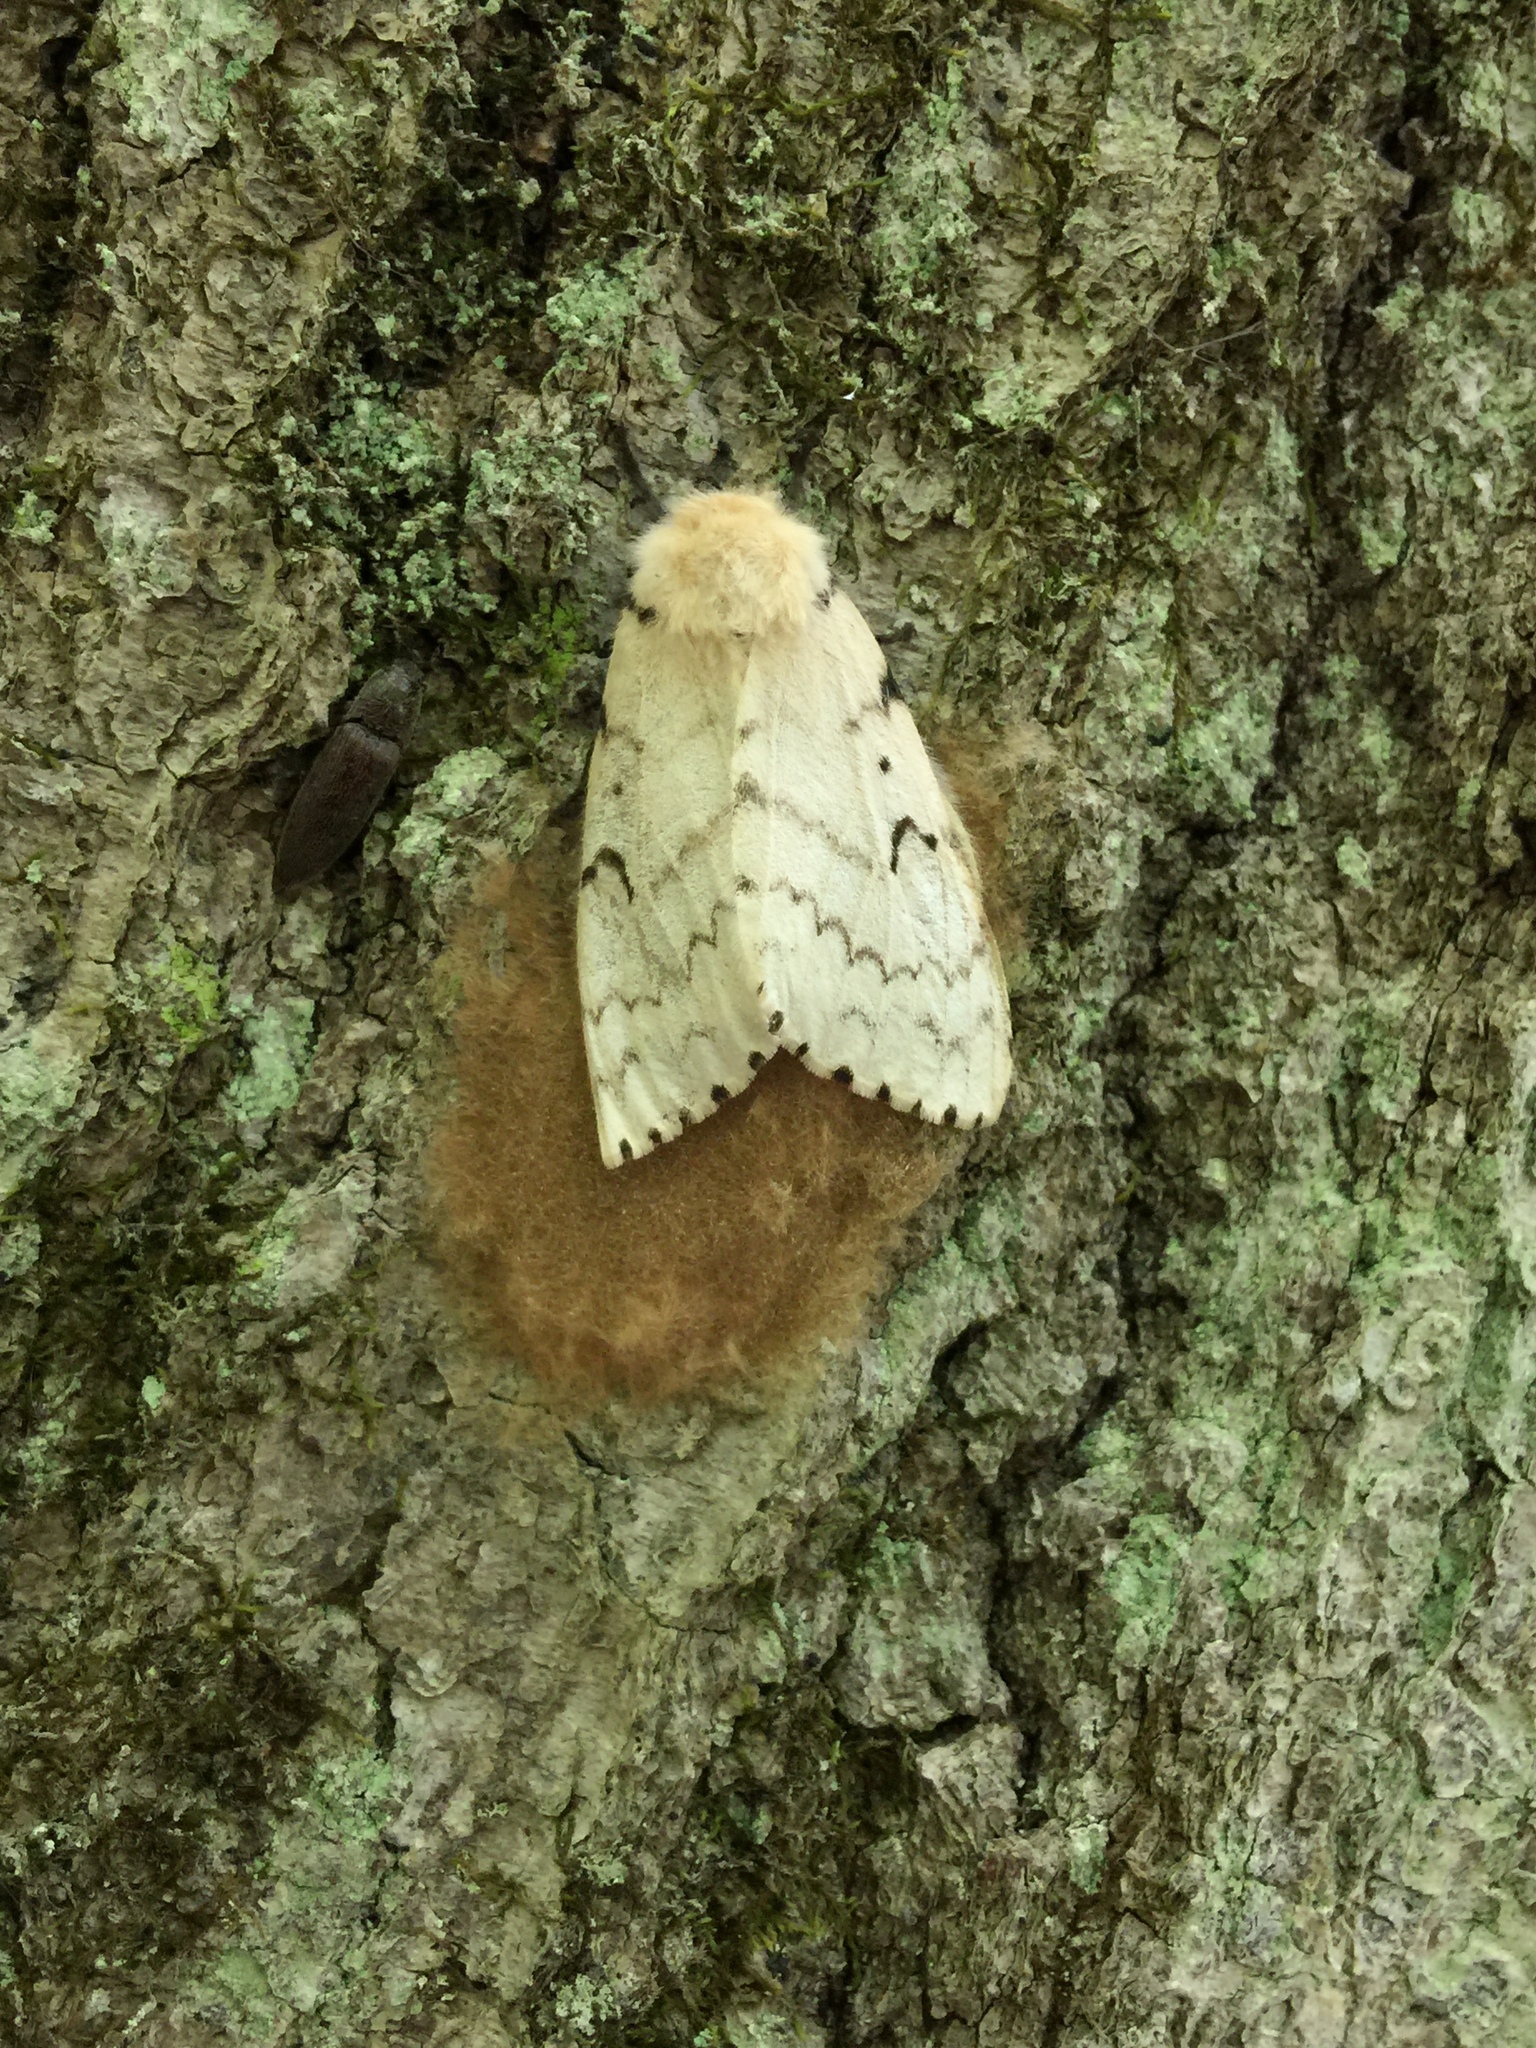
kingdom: Animalia
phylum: Arthropoda
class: Insecta
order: Lepidoptera
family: Erebidae
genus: Lymantria
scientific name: Lymantria dispar
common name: Gypsy moth
